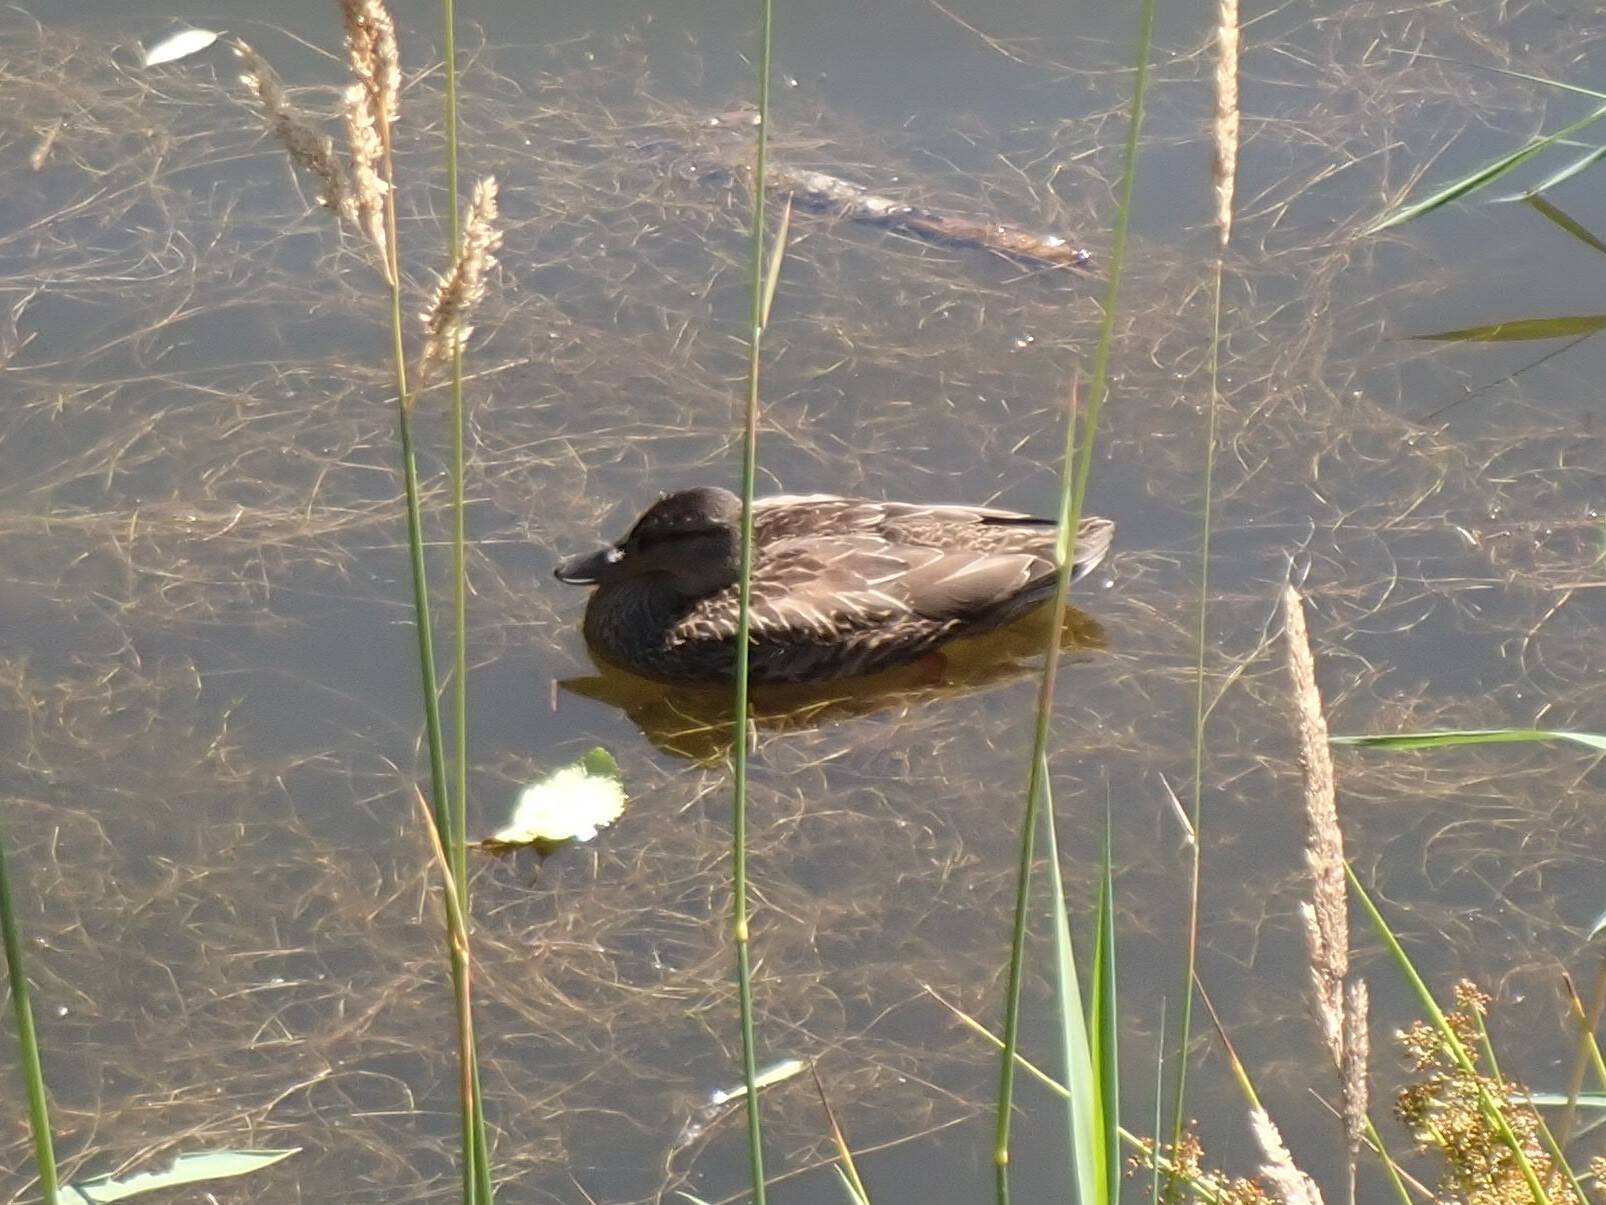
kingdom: Animalia
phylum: Chordata
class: Aves
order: Anseriformes
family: Anatidae
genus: Anas
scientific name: Anas platyrhynchos
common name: Mallard
